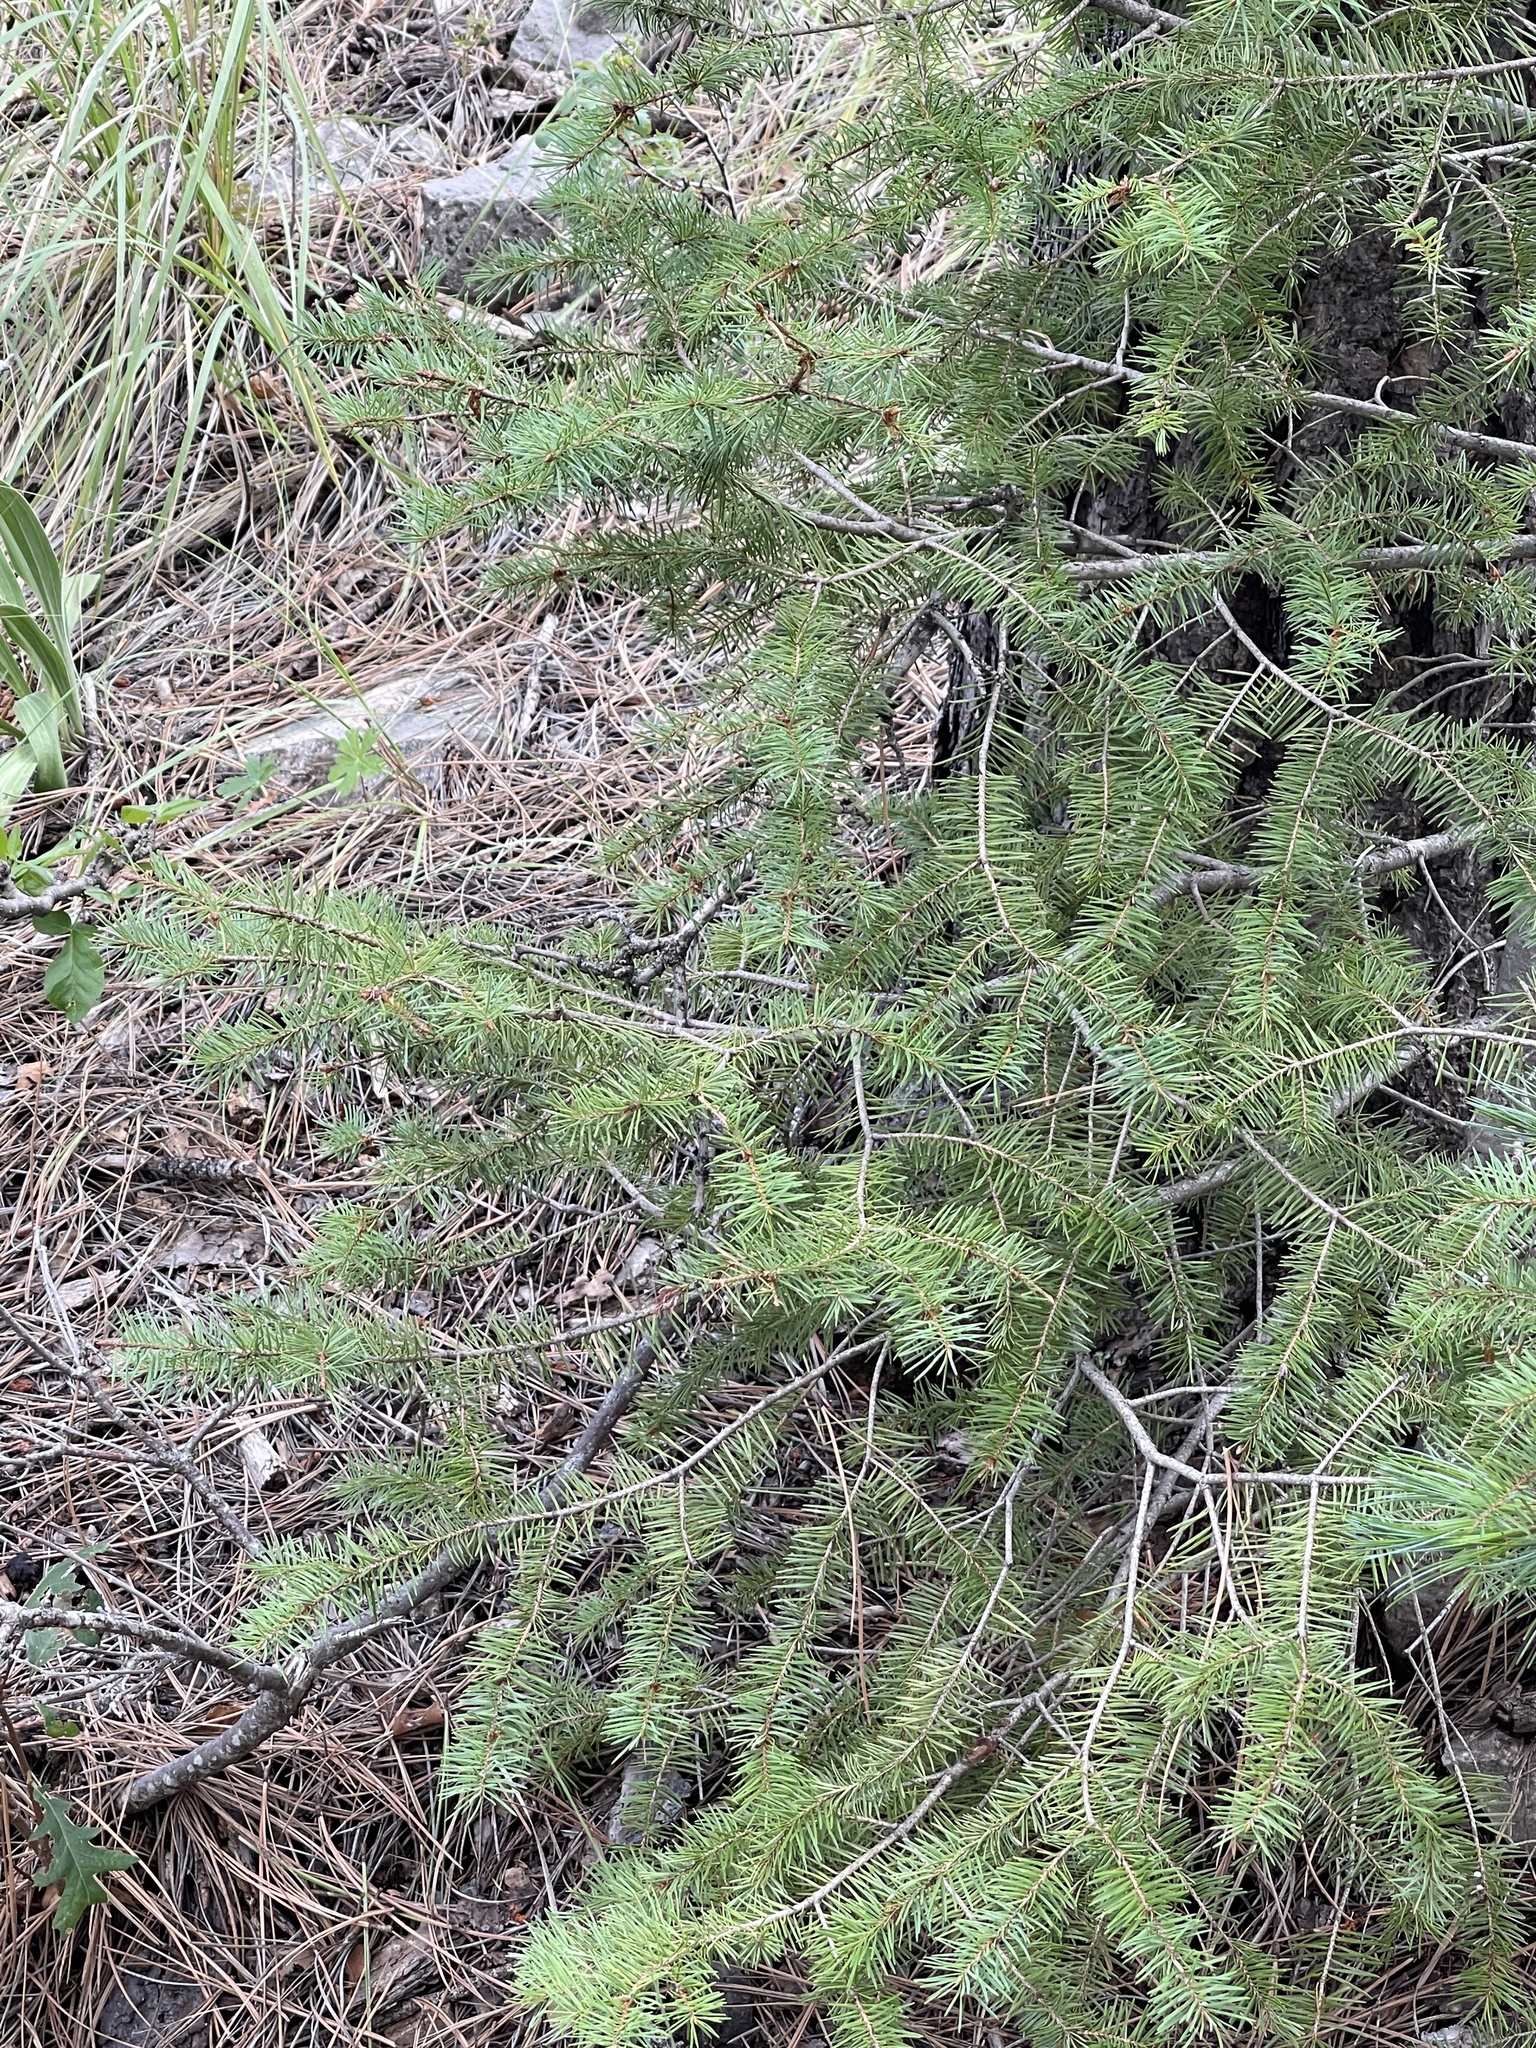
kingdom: Plantae
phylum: Tracheophyta
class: Pinopsida
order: Pinales
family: Pinaceae
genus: Pseudotsuga
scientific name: Pseudotsuga menziesii
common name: Douglas fir
